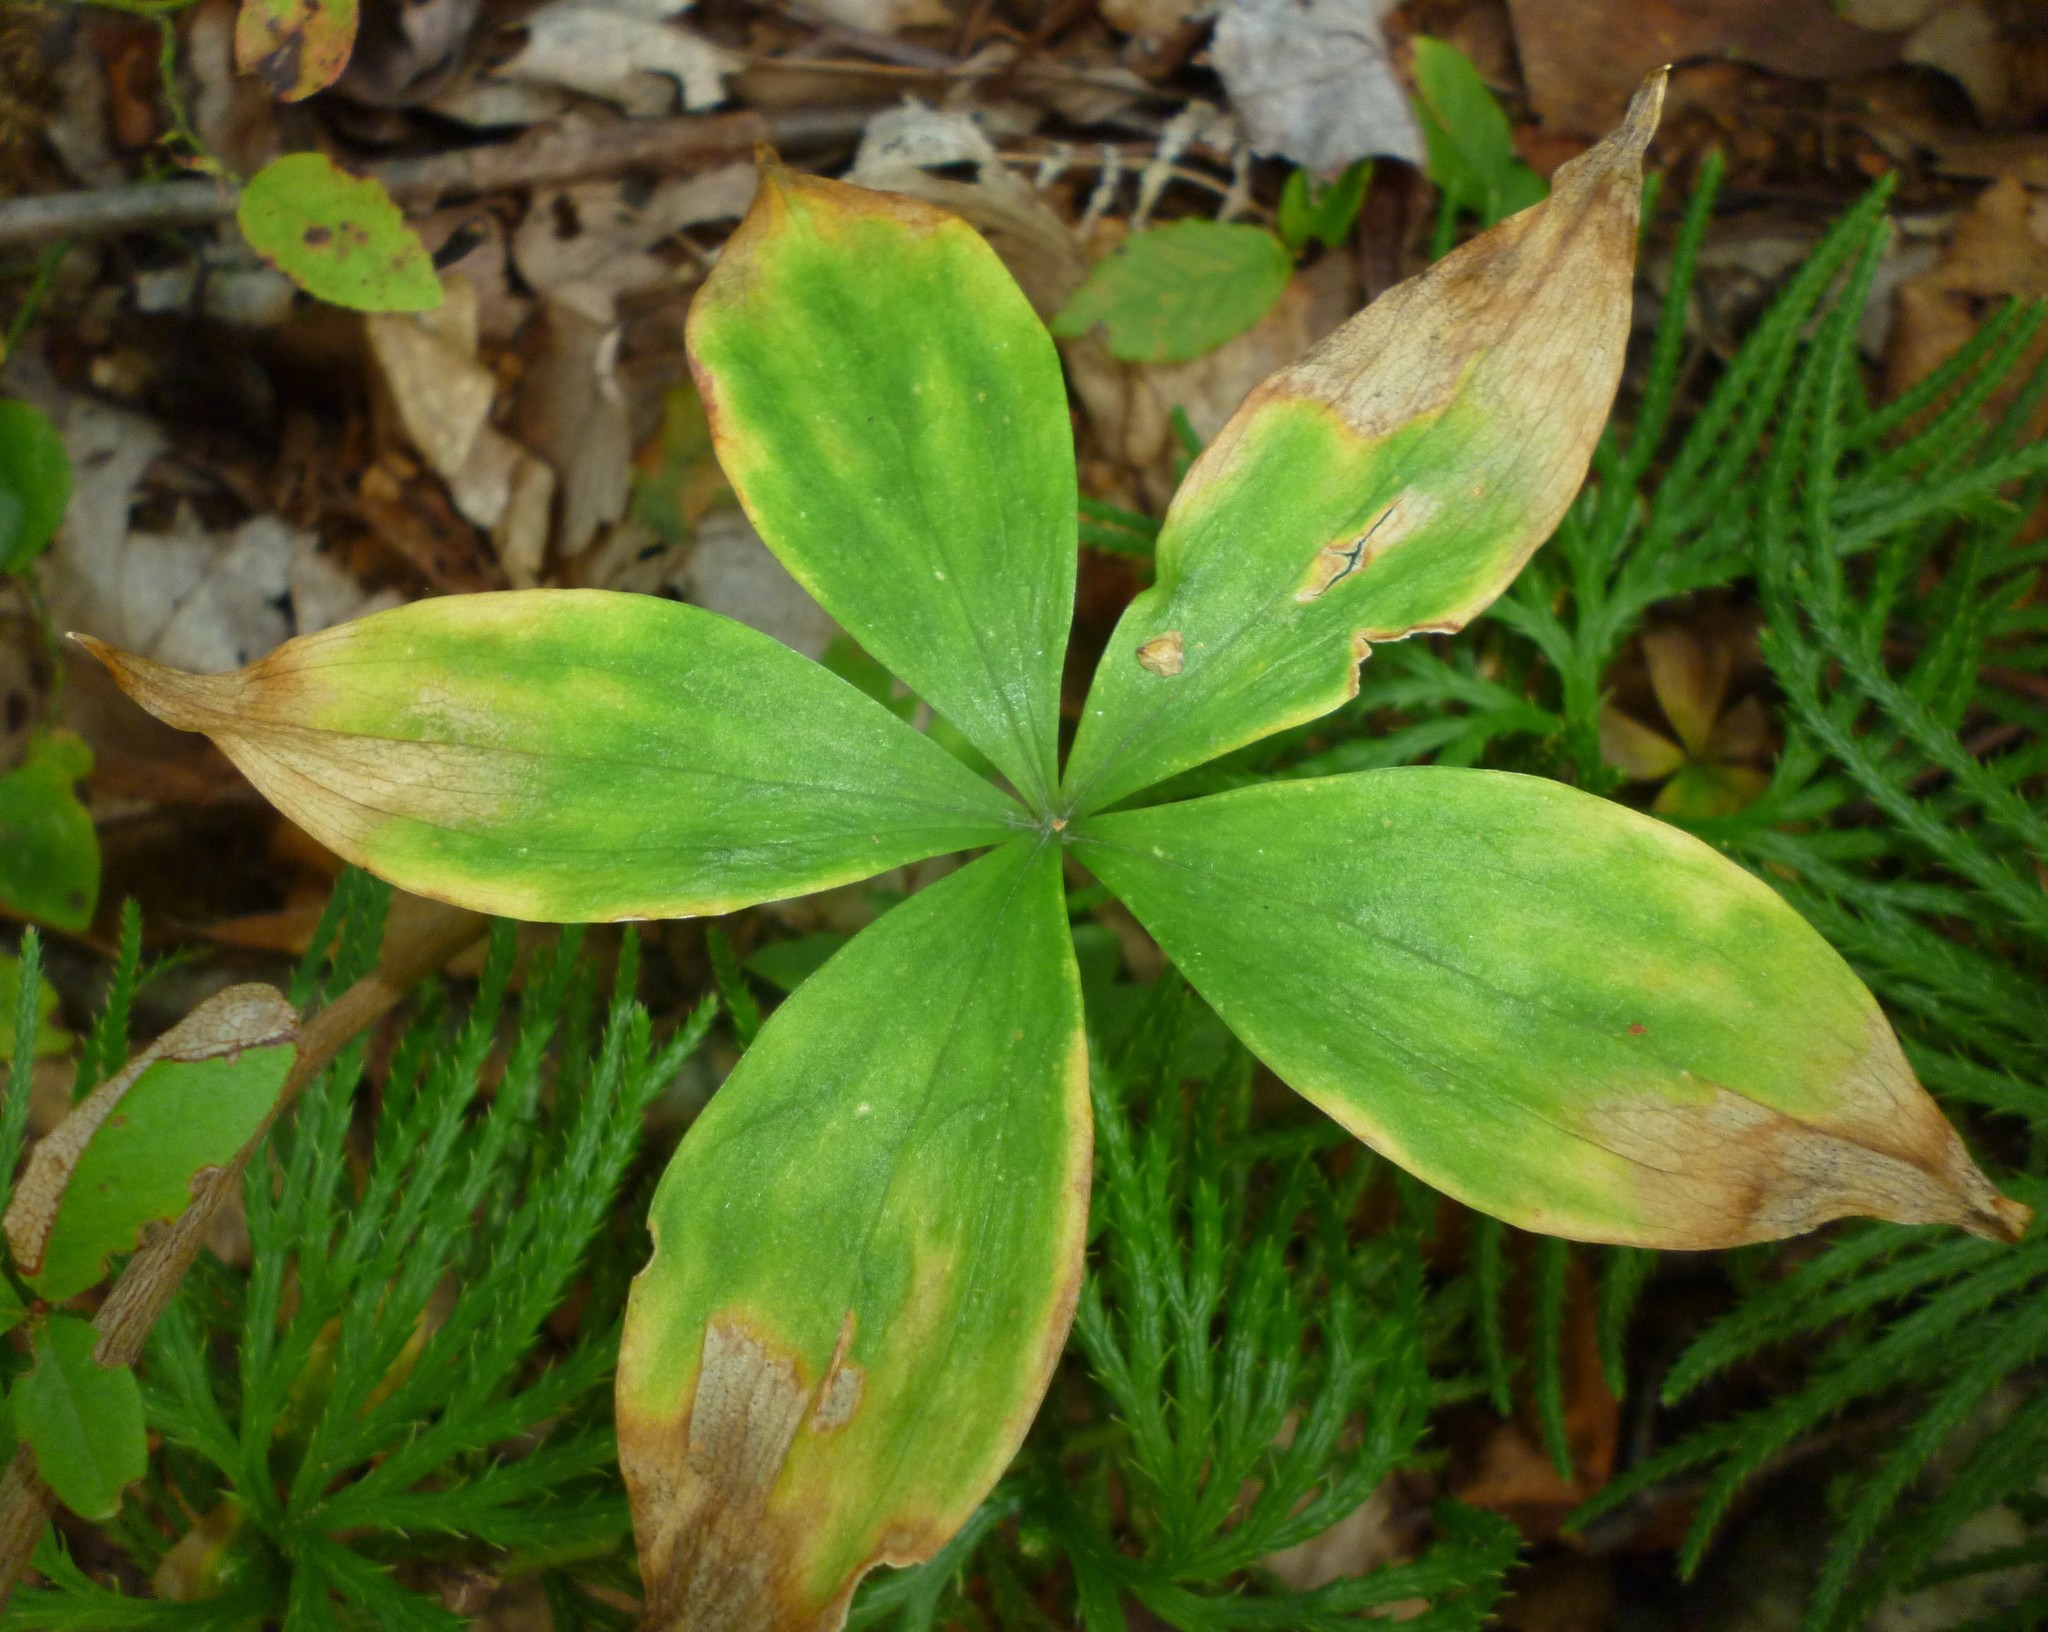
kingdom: Plantae
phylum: Tracheophyta
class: Liliopsida
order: Liliales
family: Liliaceae
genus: Medeola
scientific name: Medeola virginiana
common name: Indian cucumber-root
